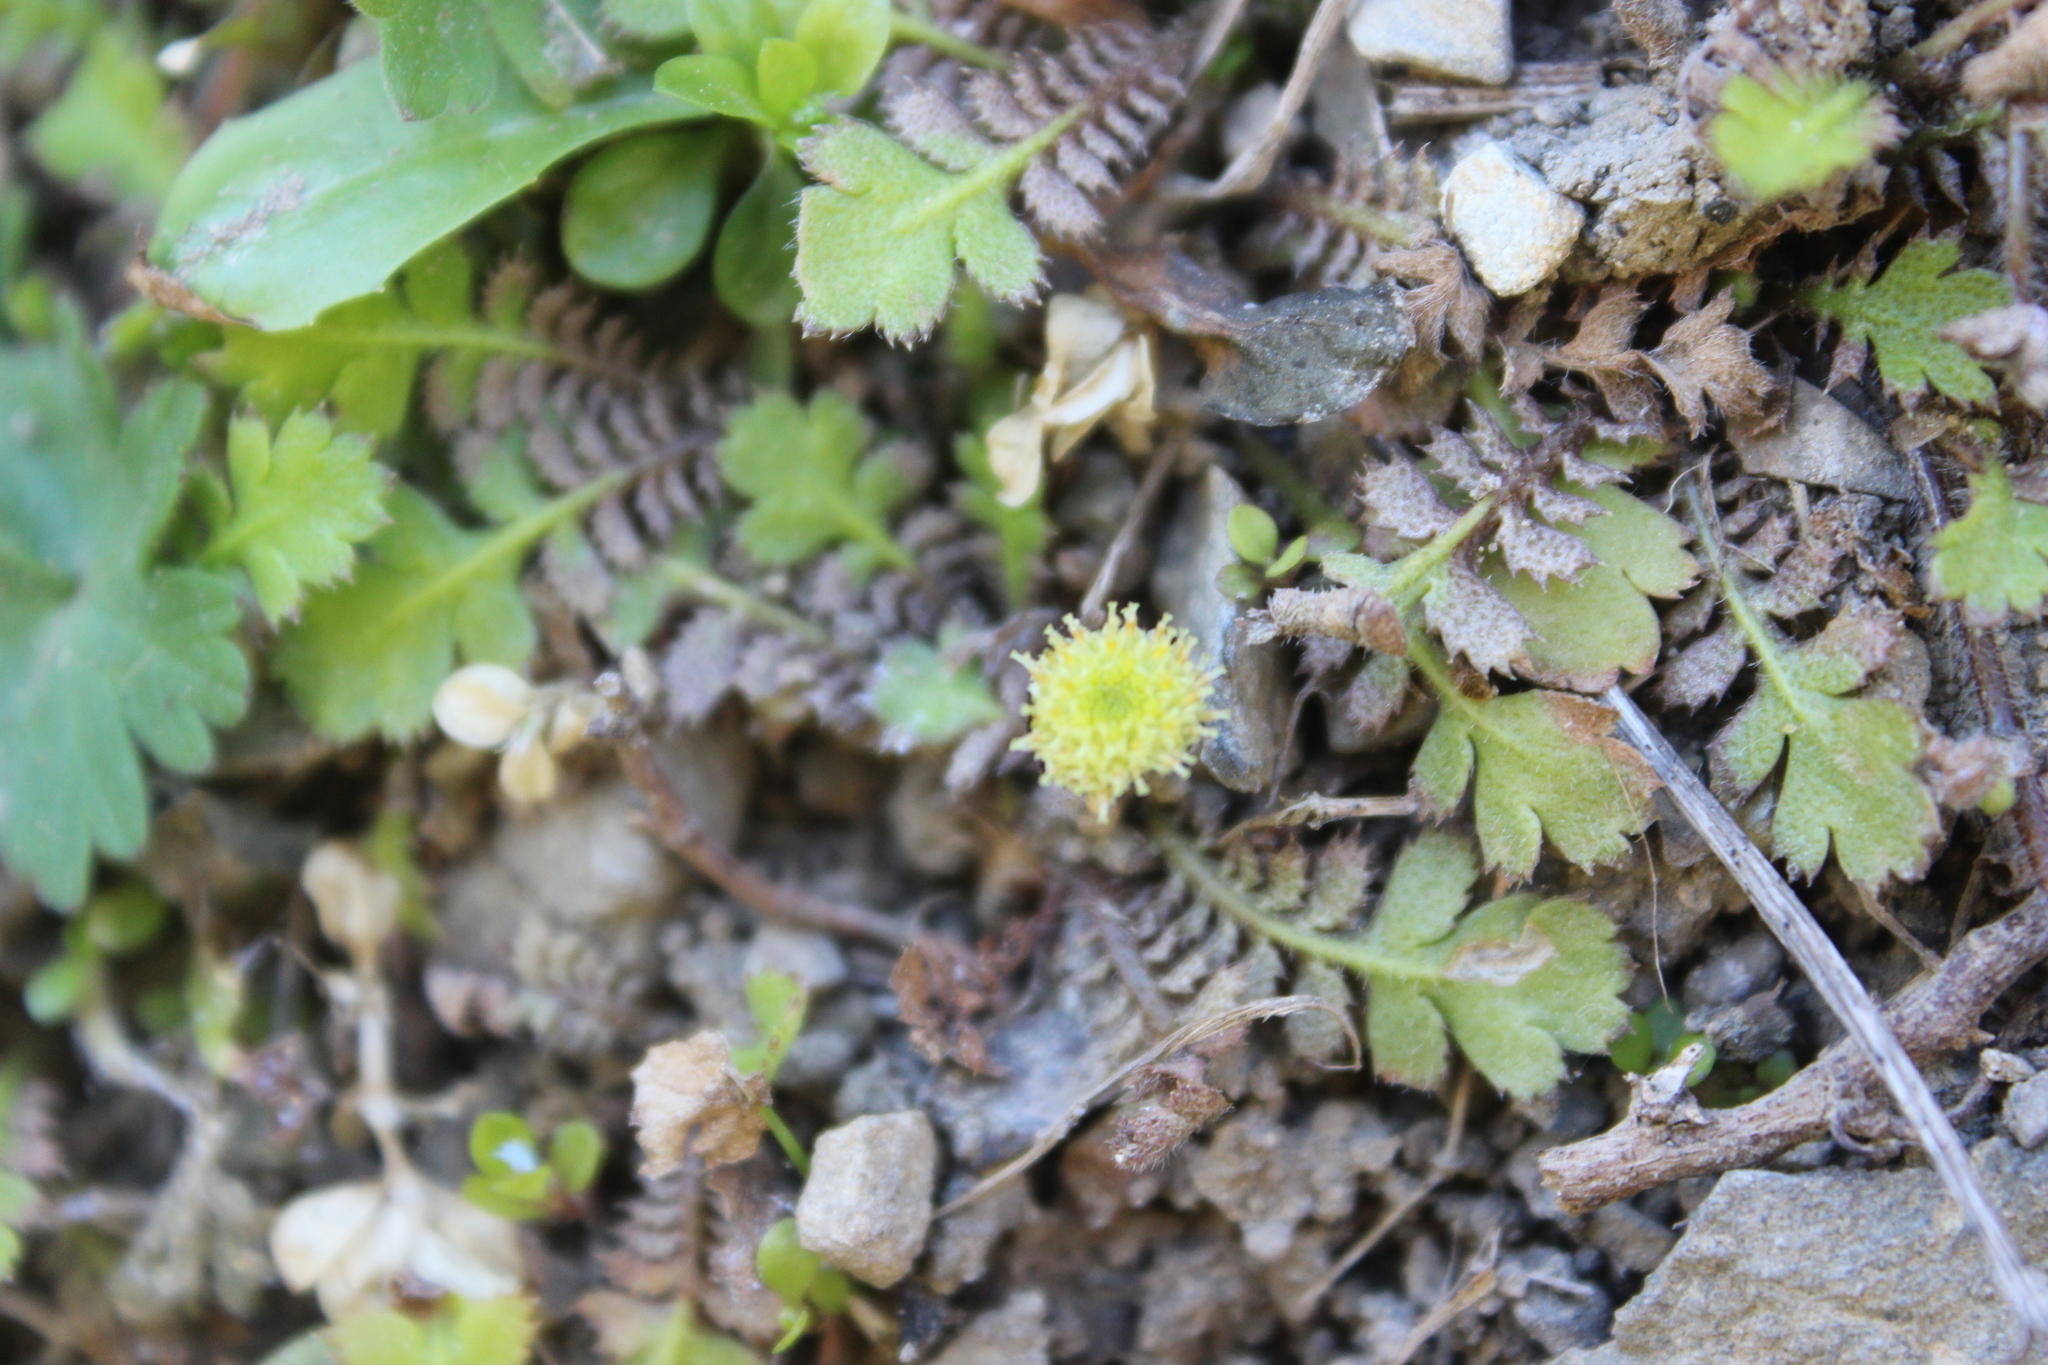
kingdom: Plantae
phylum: Tracheophyta
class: Magnoliopsida
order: Asterales
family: Asteraceae
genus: Leptinella
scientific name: Leptinella squalida
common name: New zealand brass-buttons
